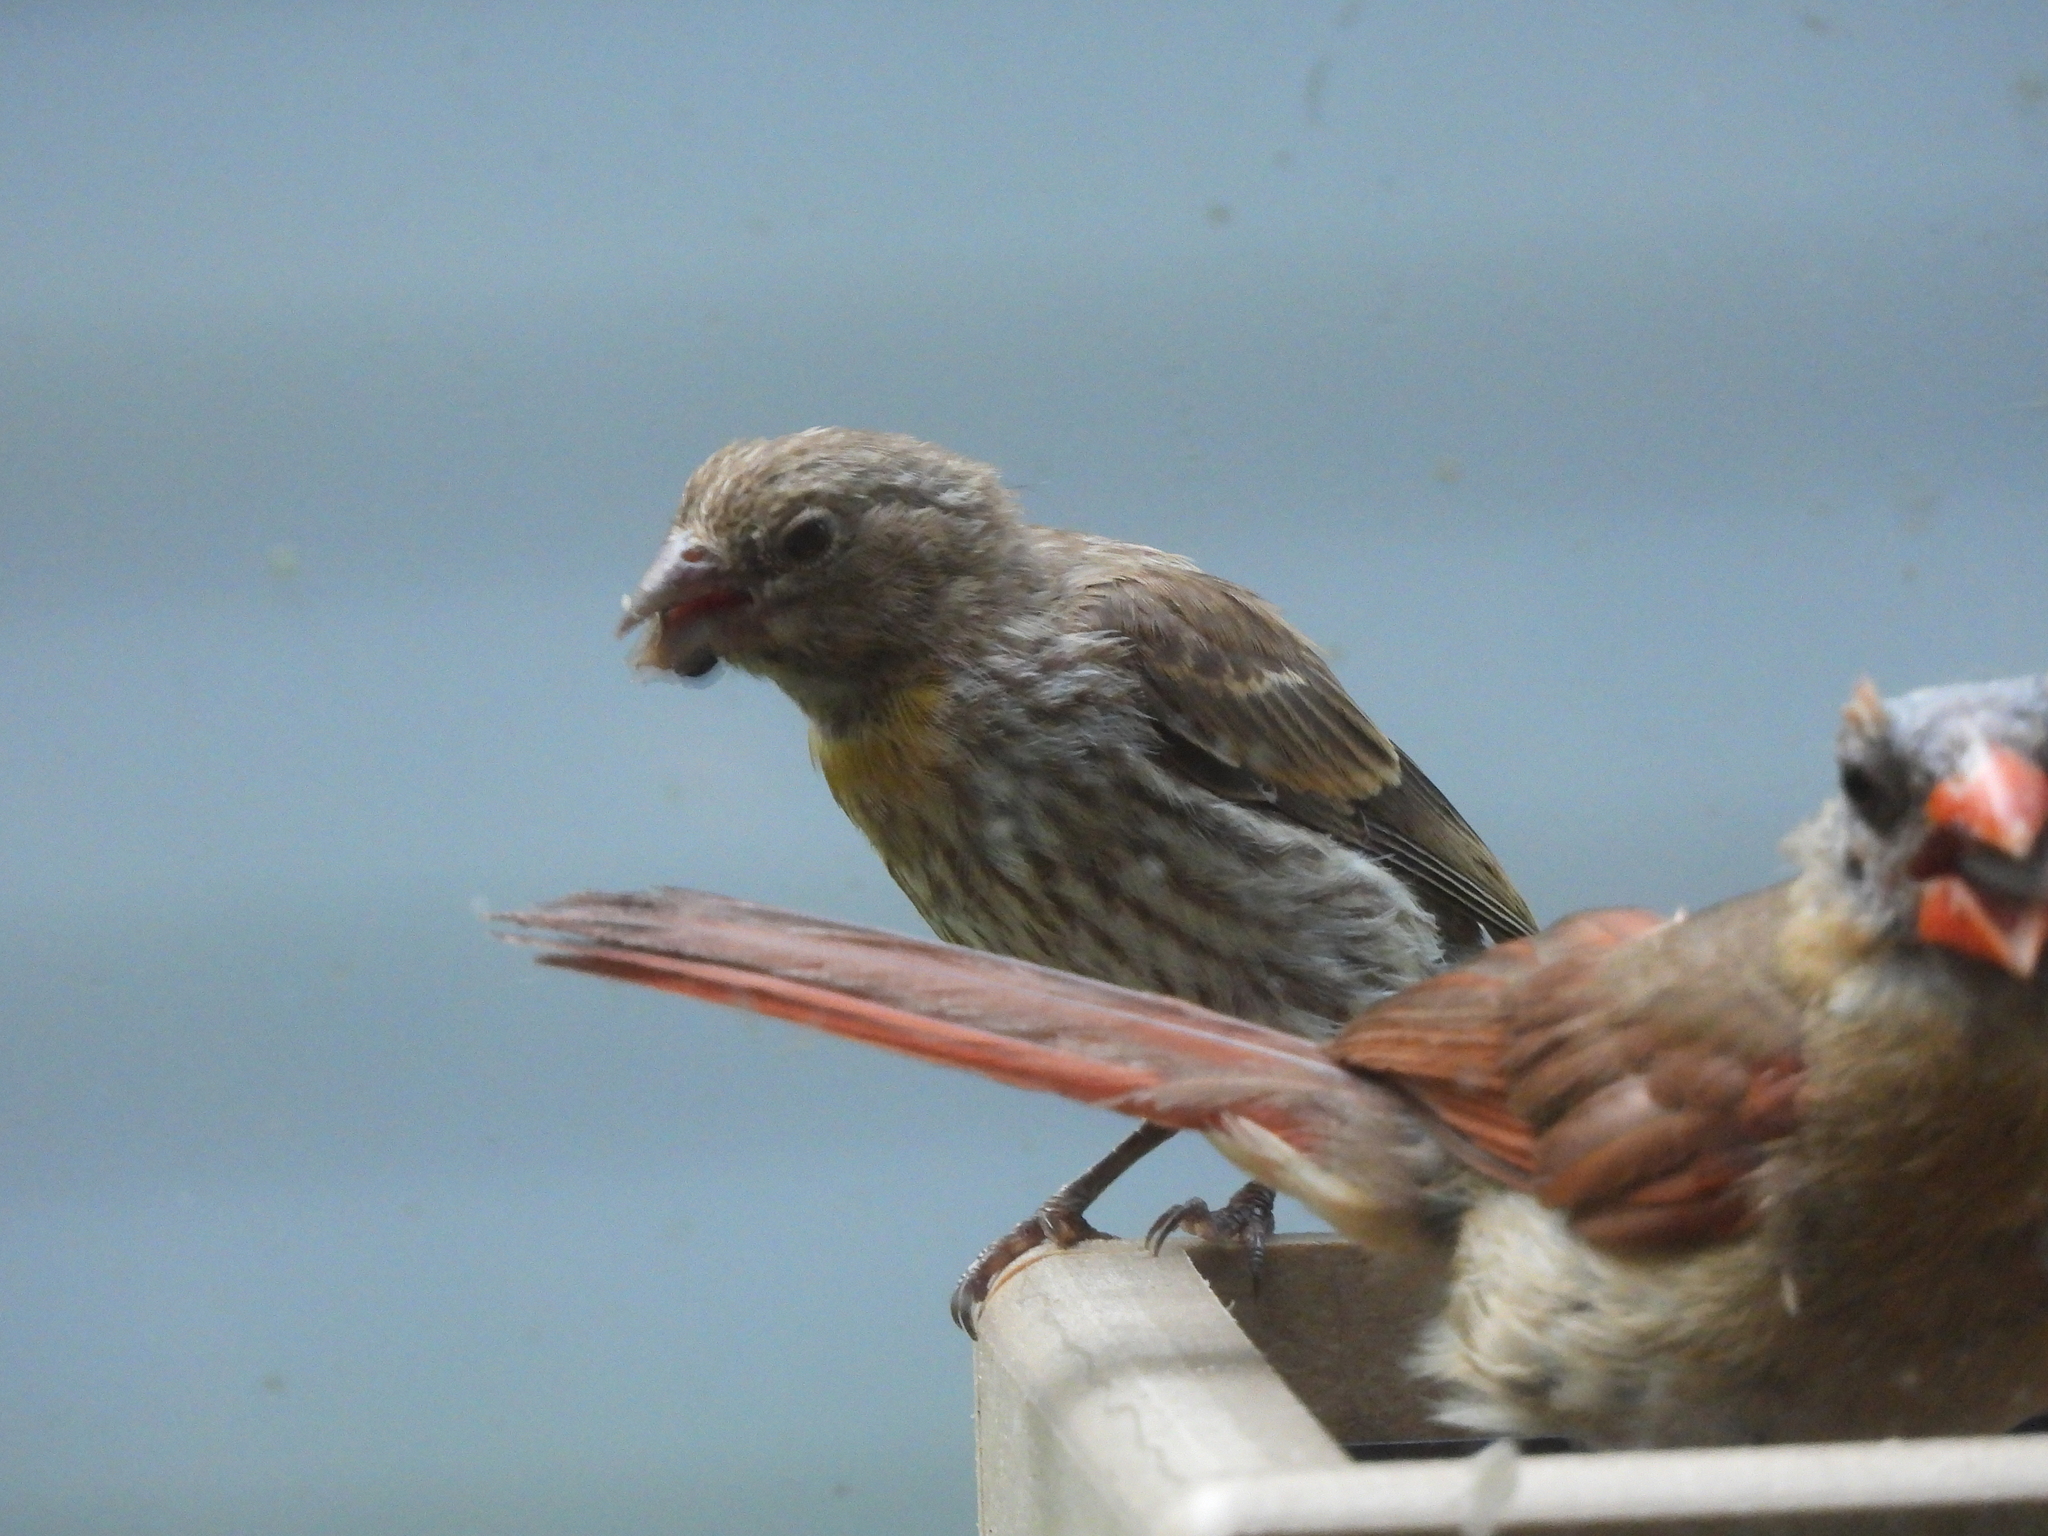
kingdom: Animalia
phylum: Chordata
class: Aves
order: Passeriformes
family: Fringillidae
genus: Haemorhous
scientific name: Haemorhous mexicanus
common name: House finch
